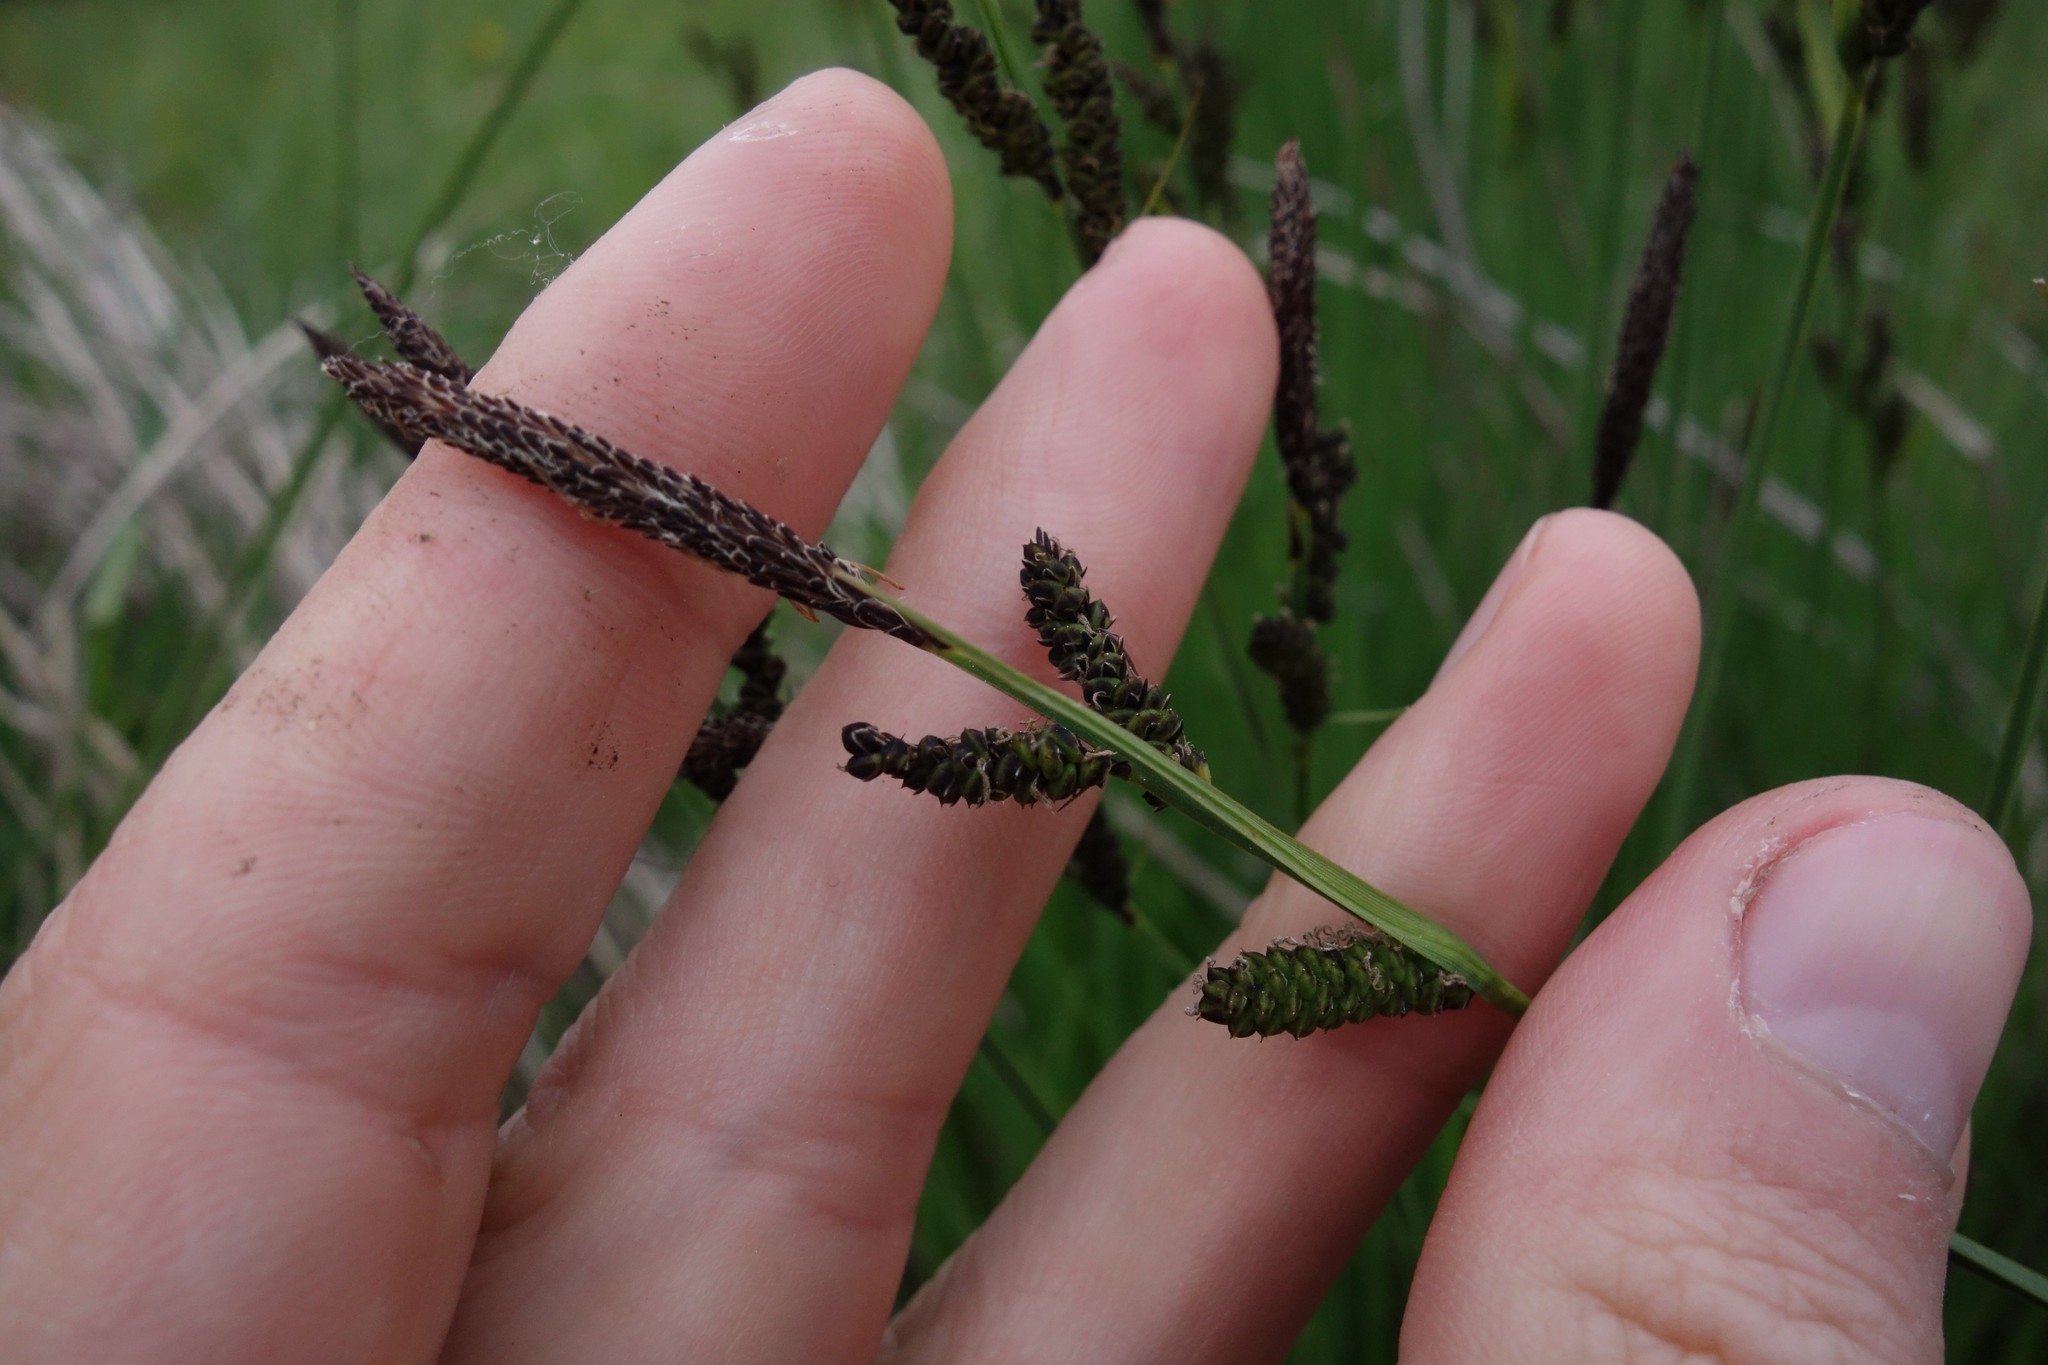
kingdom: Plantae
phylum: Tracheophyta
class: Liliopsida
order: Poales
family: Cyperaceae
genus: Carex
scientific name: Carex cespitosa
